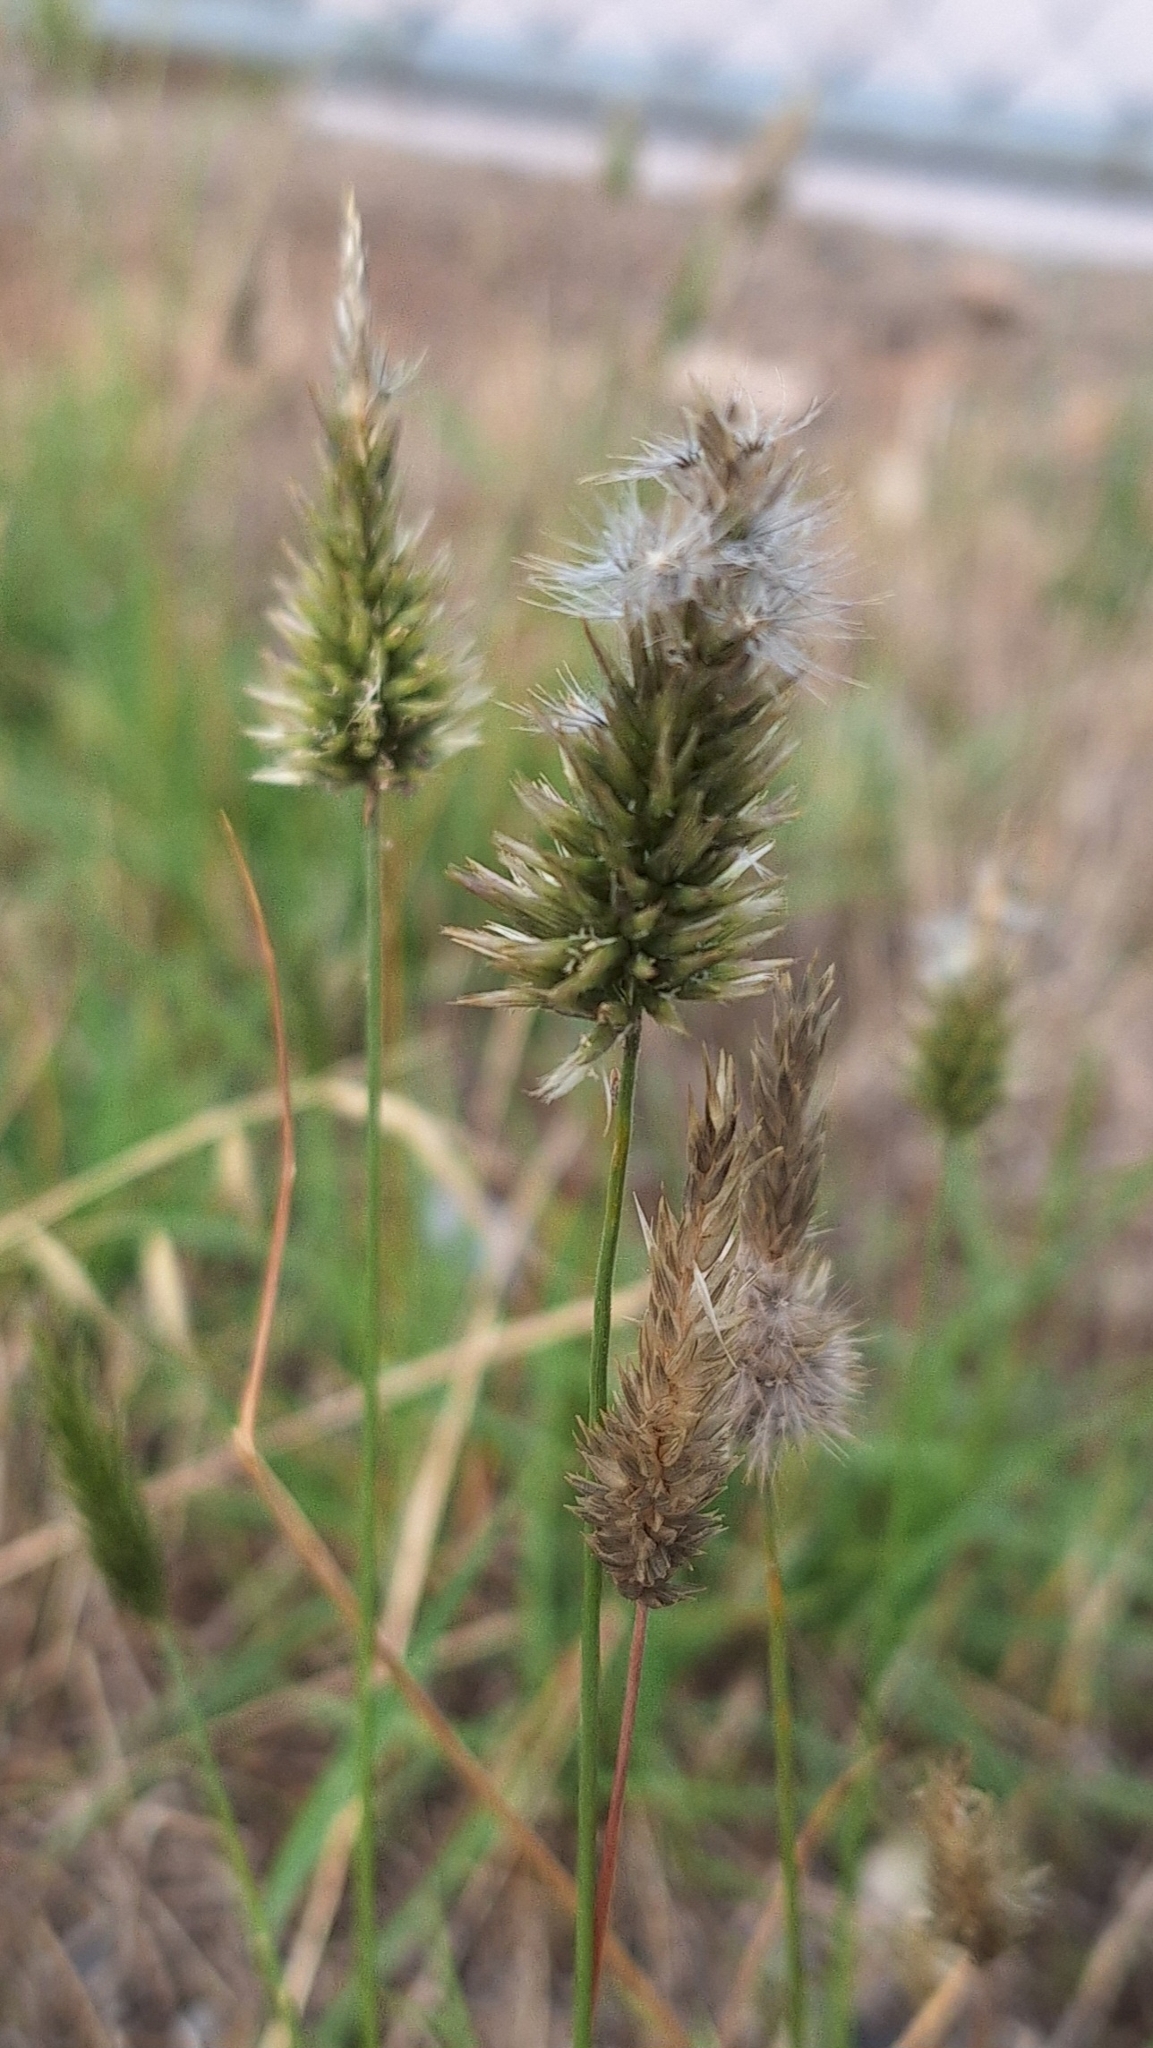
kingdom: Plantae
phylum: Tracheophyta
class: Liliopsida
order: Poales
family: Poaceae
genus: Enneapogon
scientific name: Enneapogon nigricans
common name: Pappus grass
